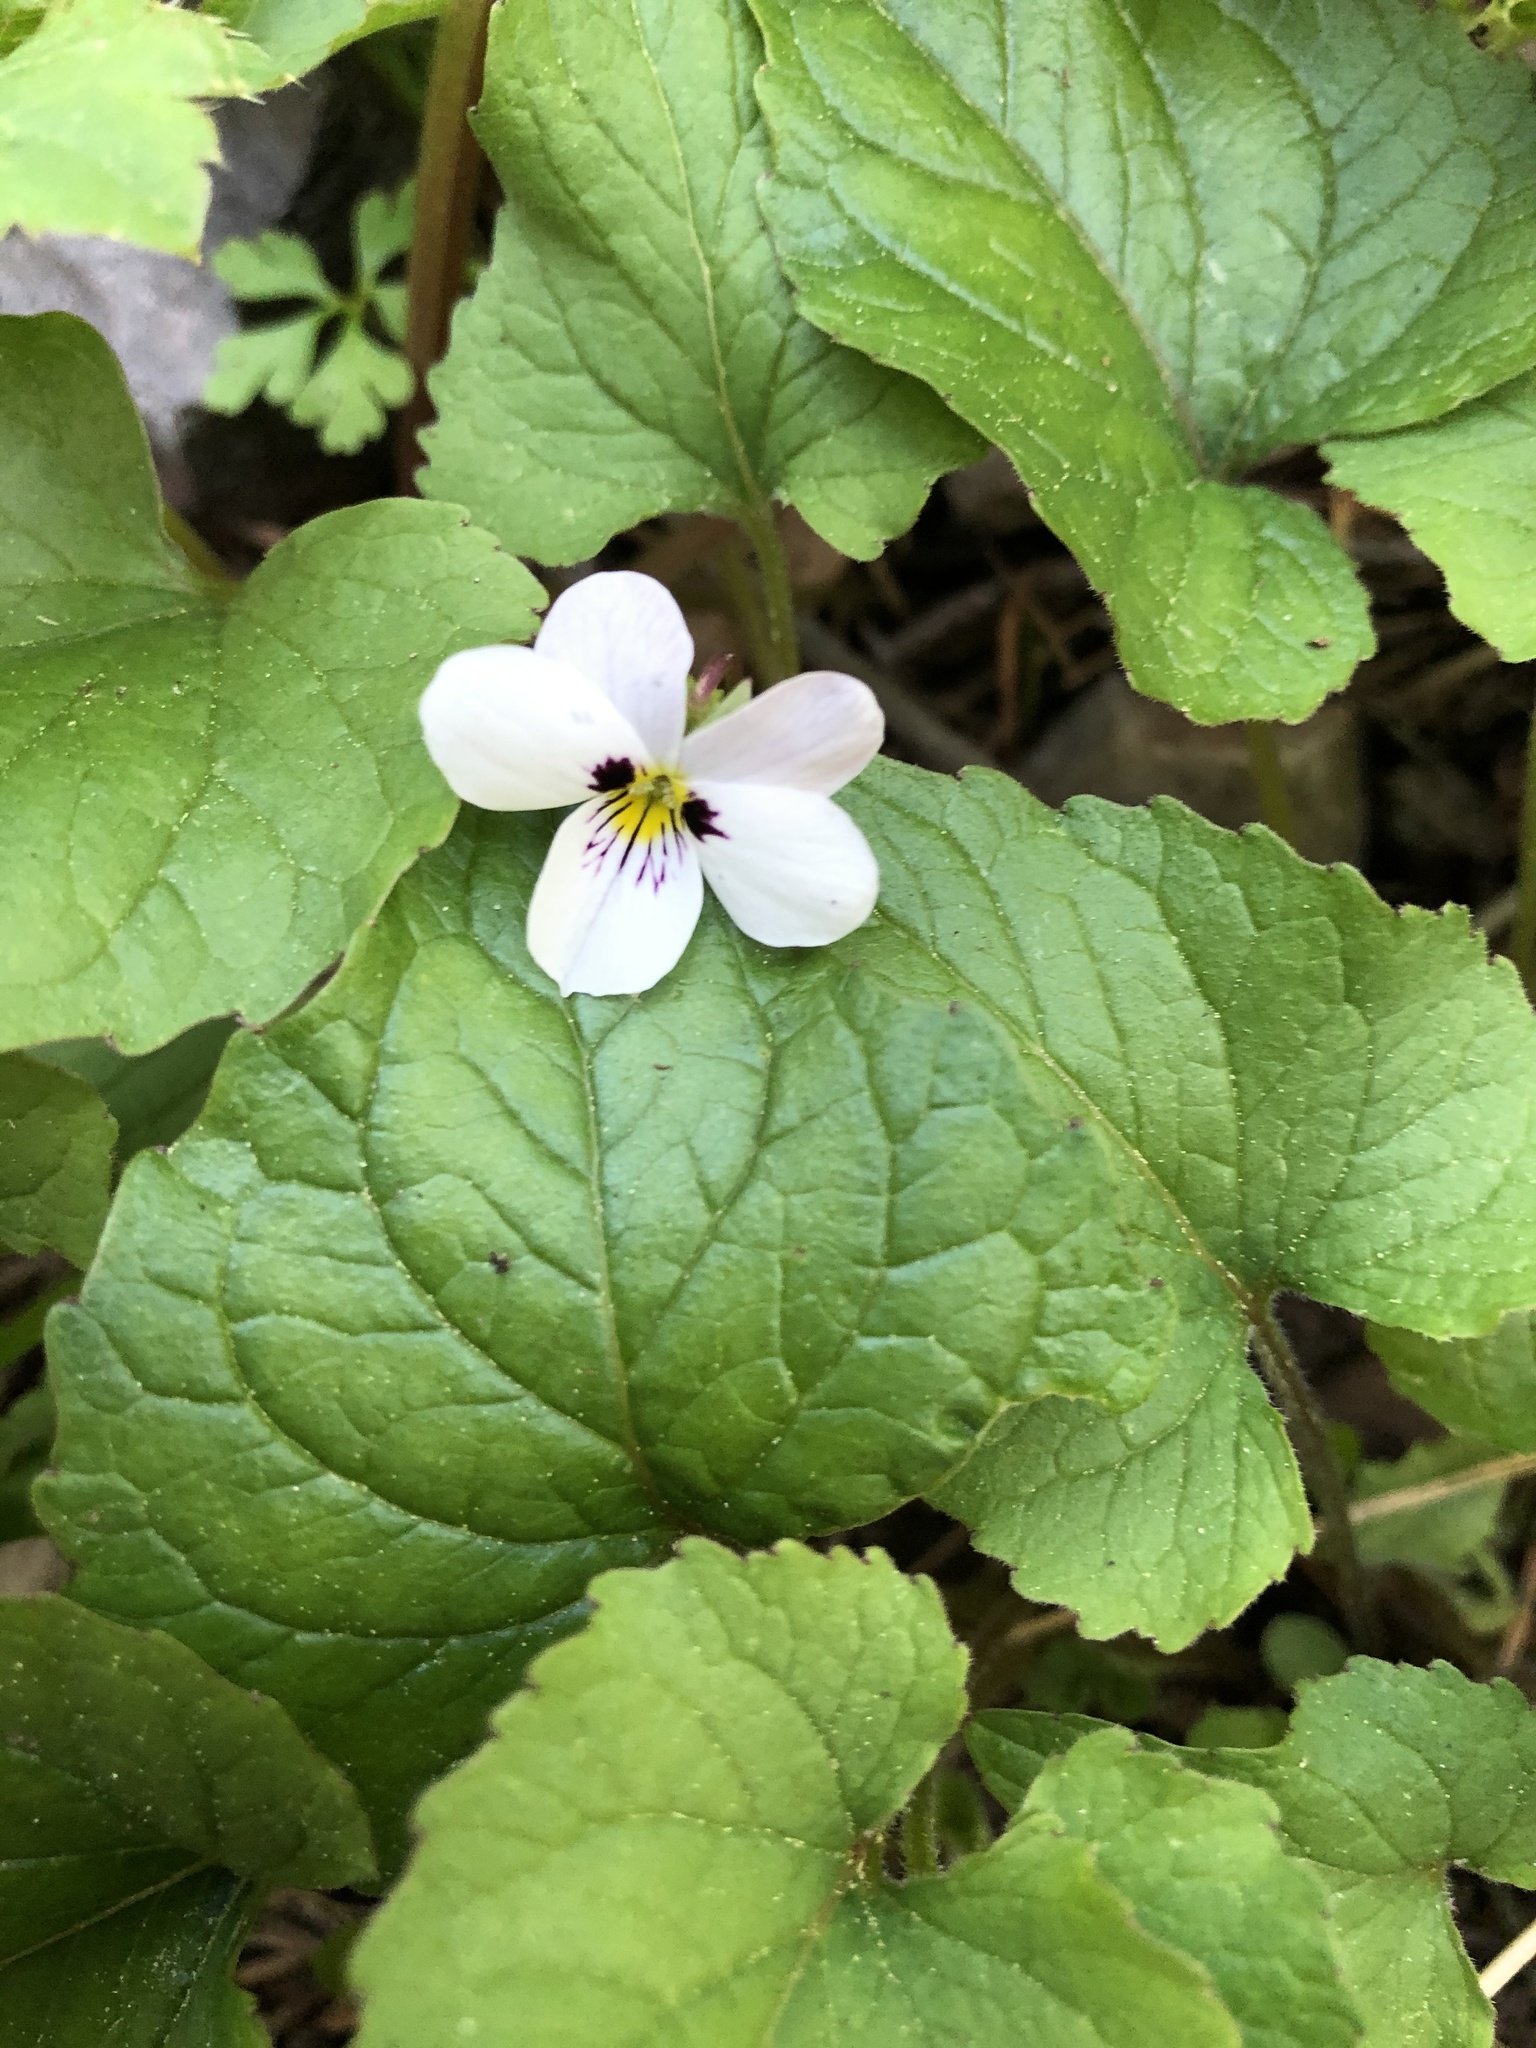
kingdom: Plantae
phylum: Tracheophyta
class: Magnoliopsida
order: Malpighiales
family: Violaceae
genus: Viola
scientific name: Viola ocellata
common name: Western heart's ease
